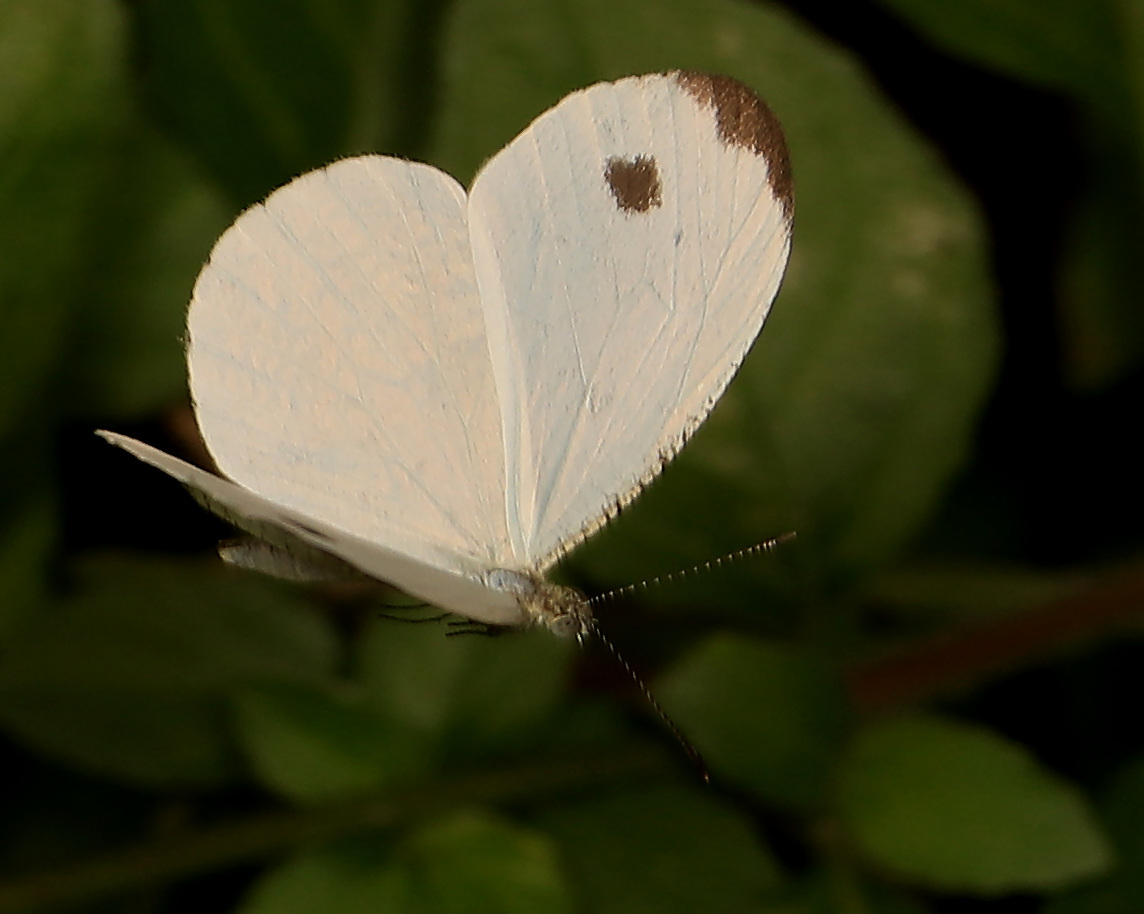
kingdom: Animalia
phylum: Arthropoda
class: Insecta
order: Lepidoptera
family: Pieridae
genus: Leptosia
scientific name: Leptosia alcesta
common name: African wood white
